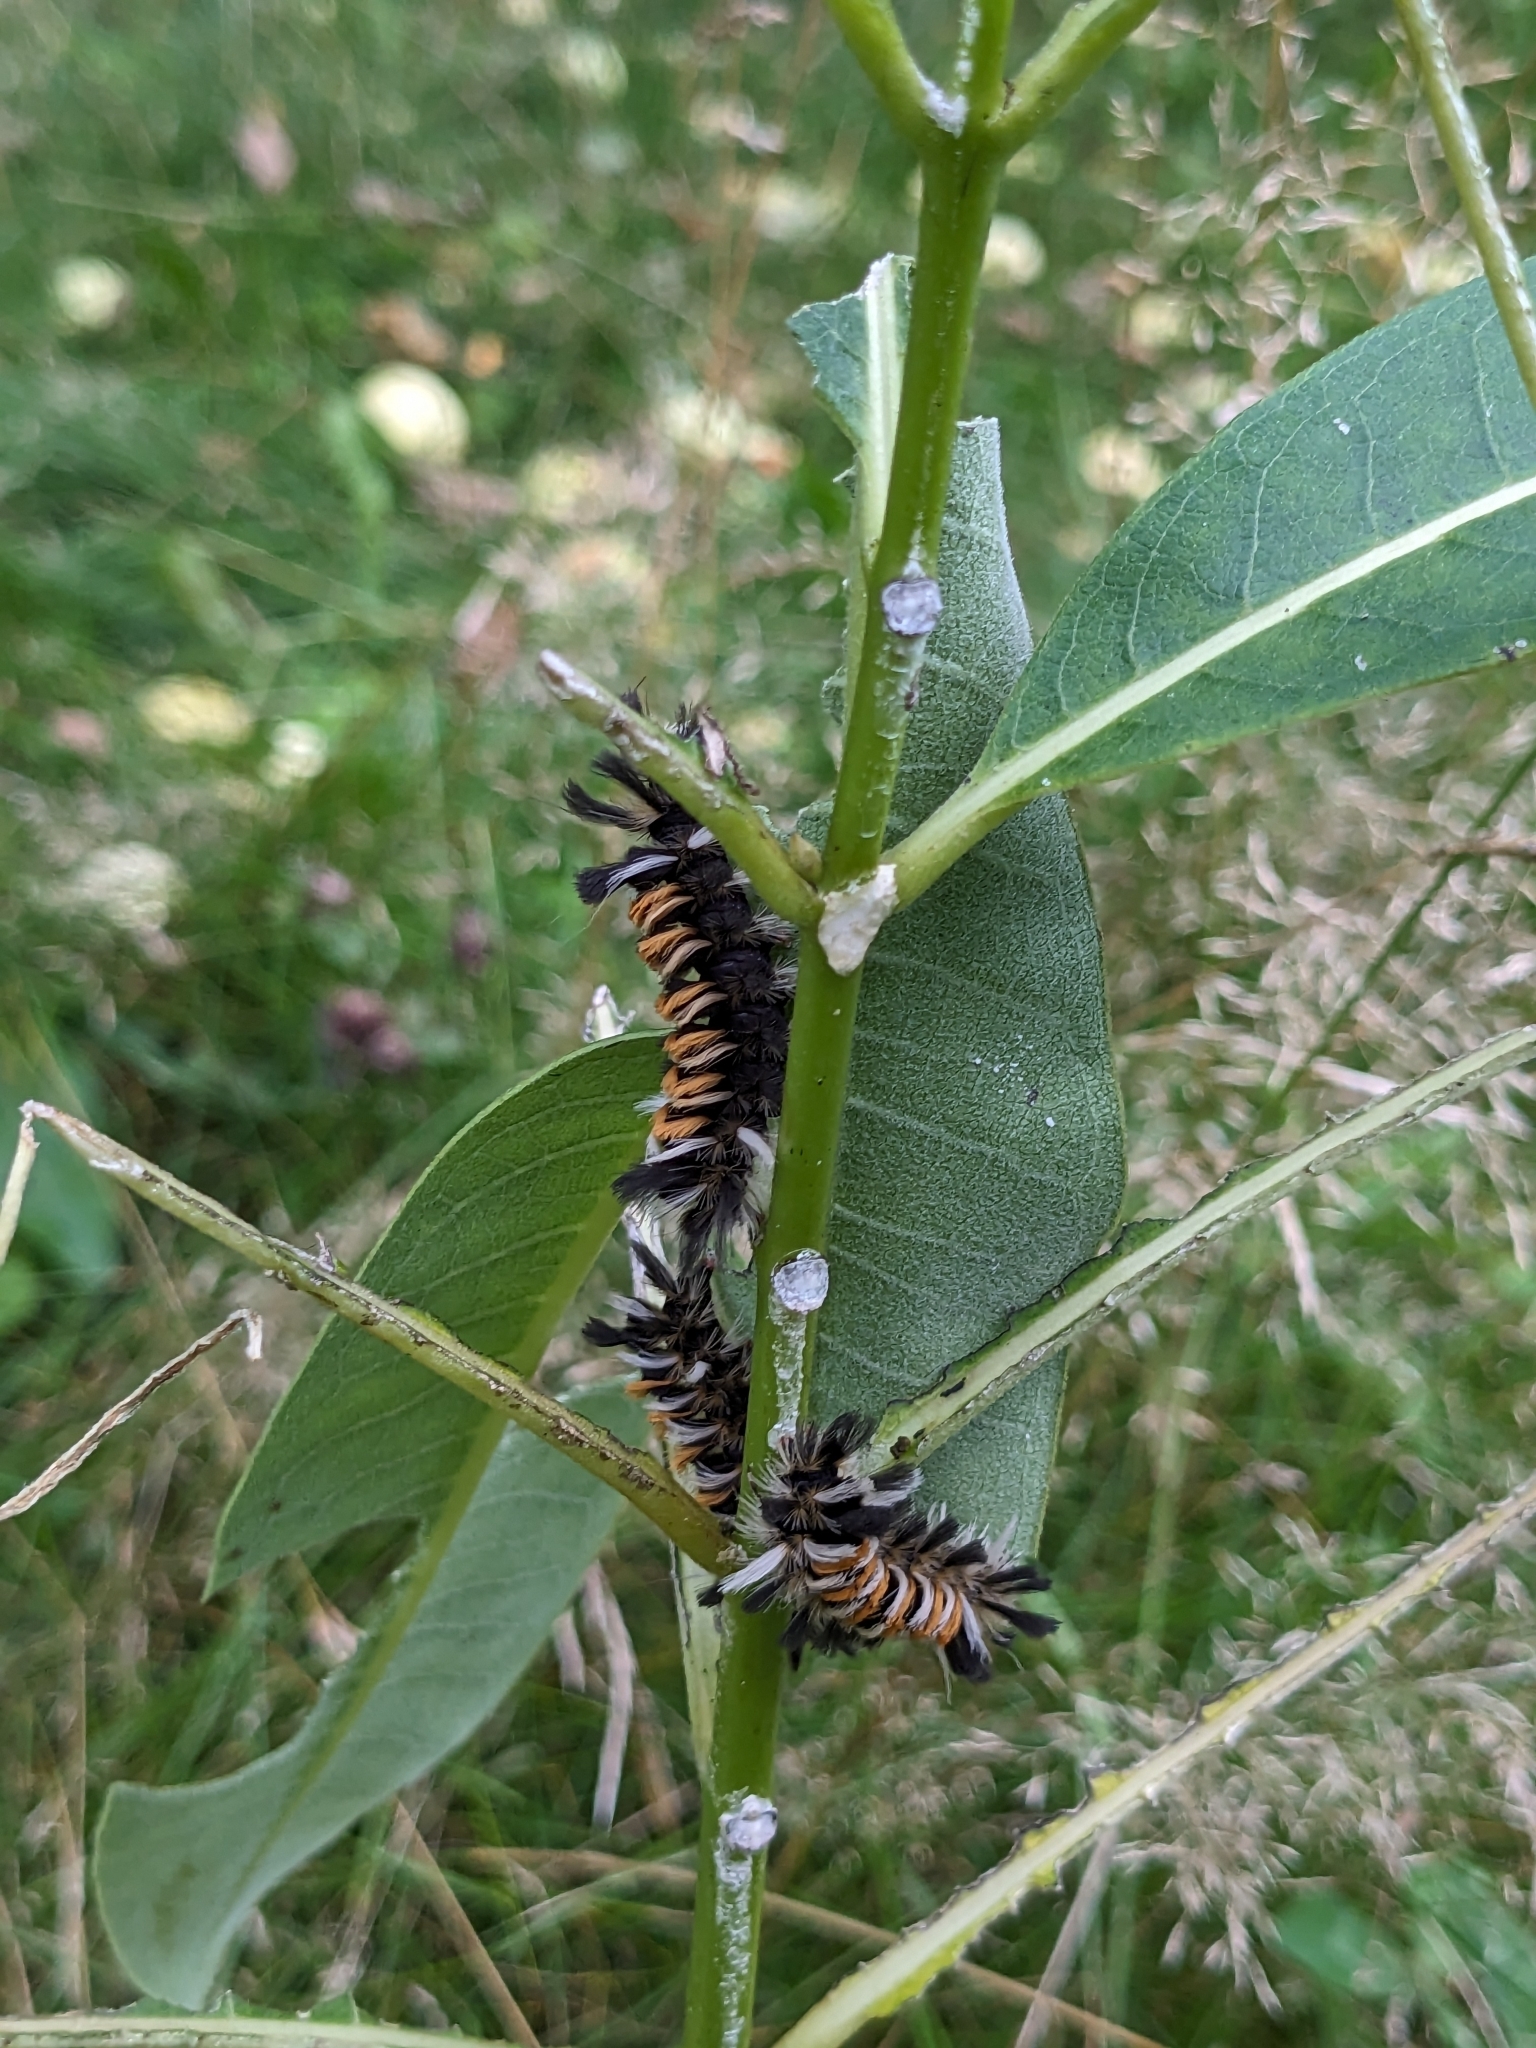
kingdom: Animalia
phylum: Arthropoda
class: Insecta
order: Lepidoptera
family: Erebidae
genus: Euchaetes
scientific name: Euchaetes egle
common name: Milkweed tussock moth
